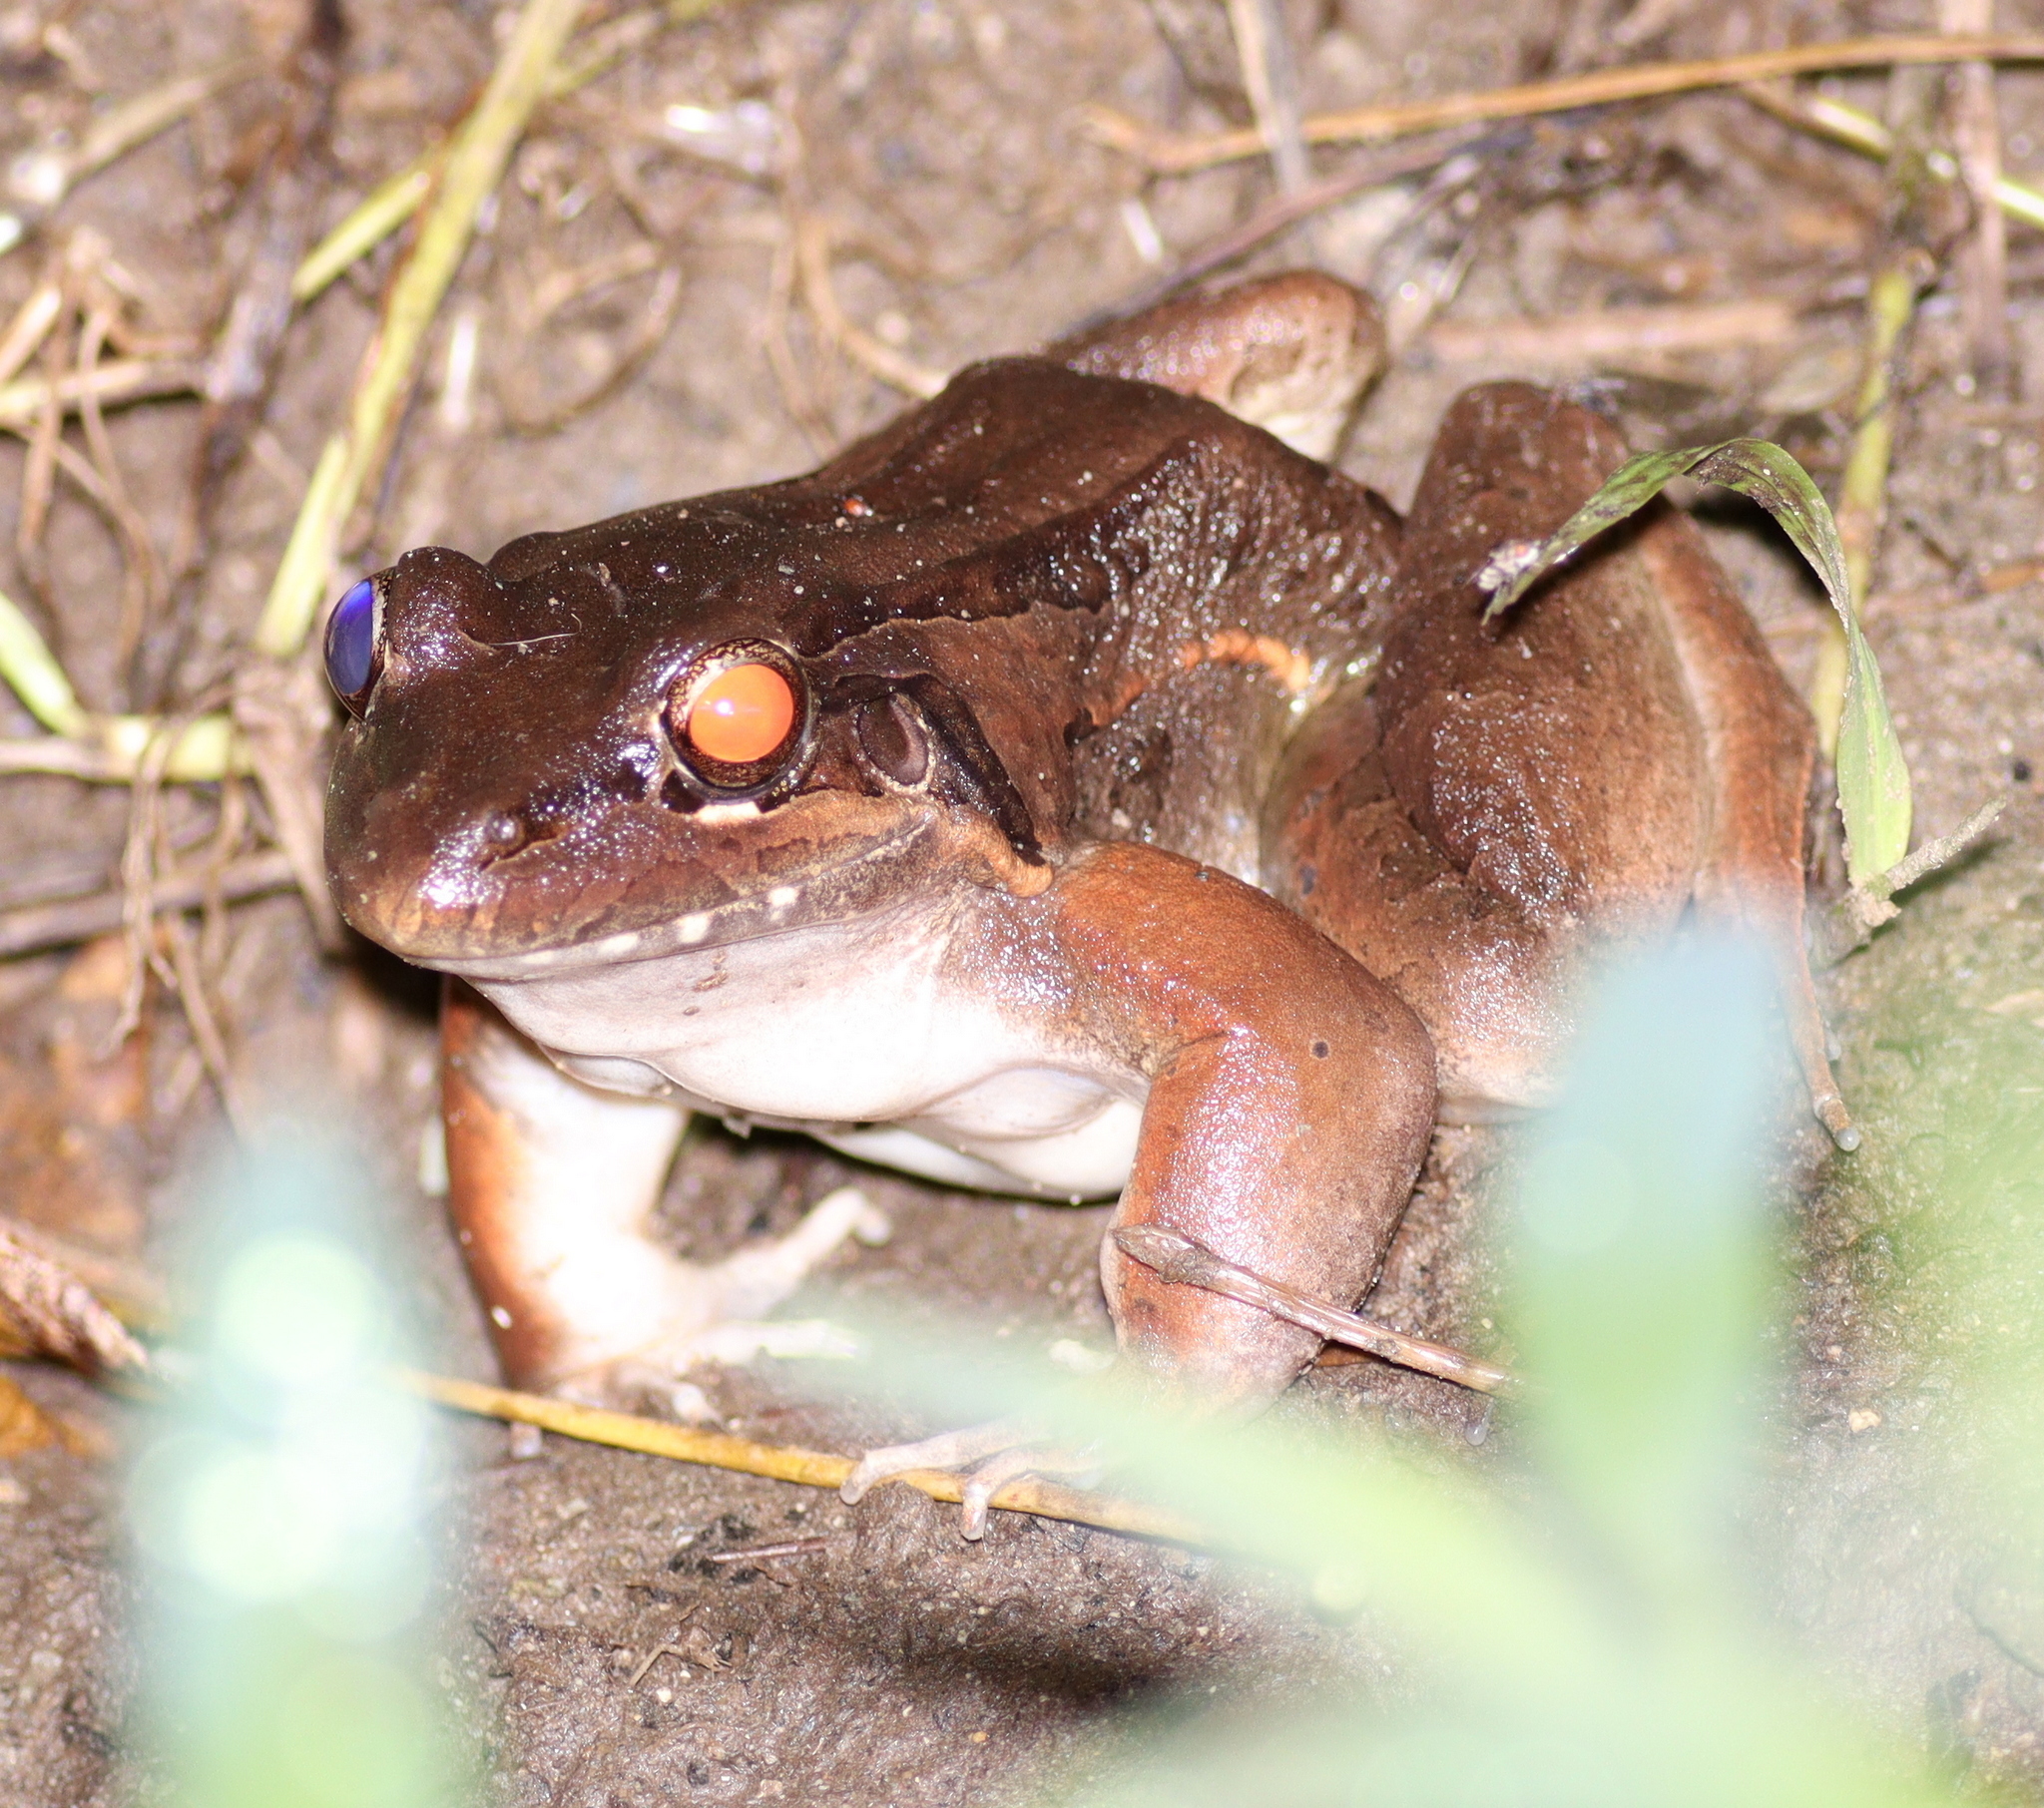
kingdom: Animalia
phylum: Chordata
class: Amphibia
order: Anura
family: Leptodactylidae
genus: Leptodactylus
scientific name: Leptodactylus insularum
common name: San miguel island frog
